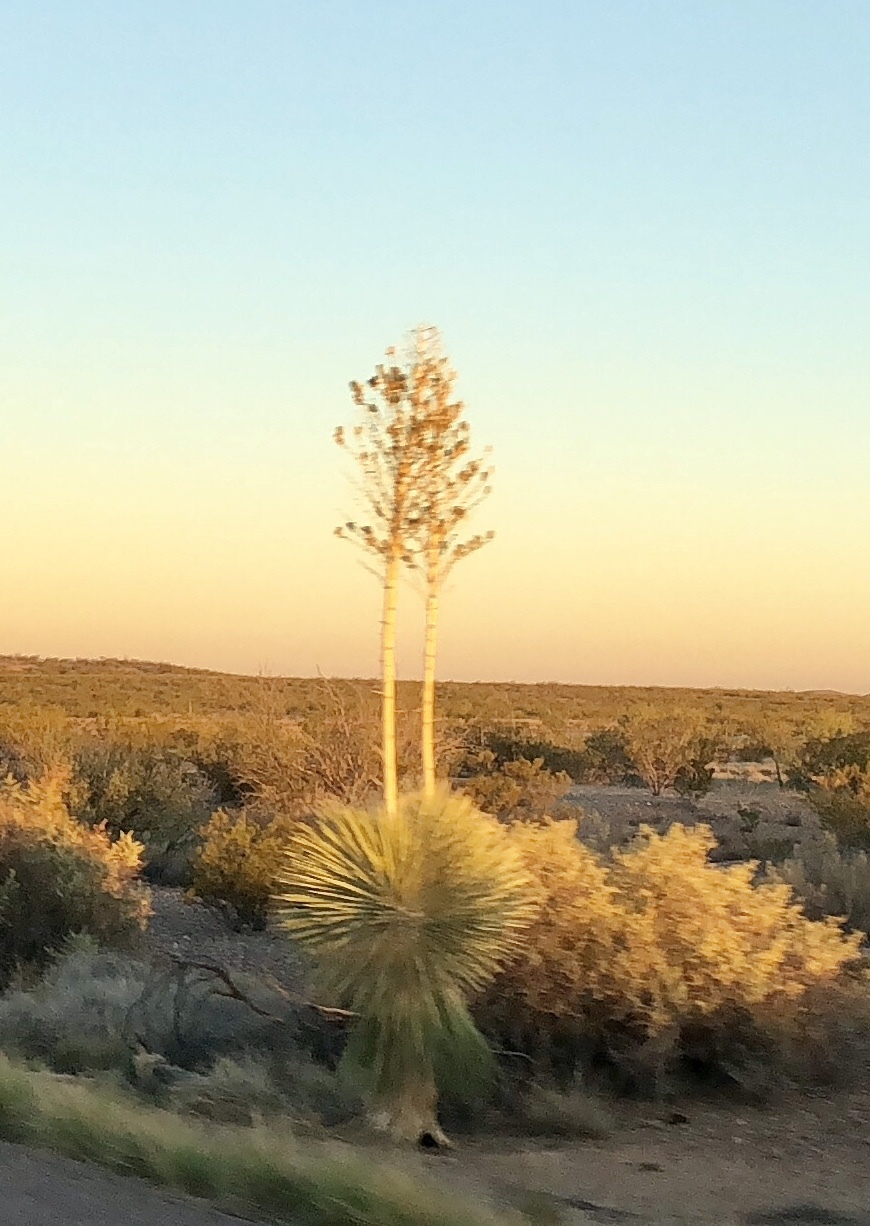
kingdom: Plantae
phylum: Tracheophyta
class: Liliopsida
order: Asparagales
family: Asparagaceae
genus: Yucca
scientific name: Yucca elata
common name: Palmella
